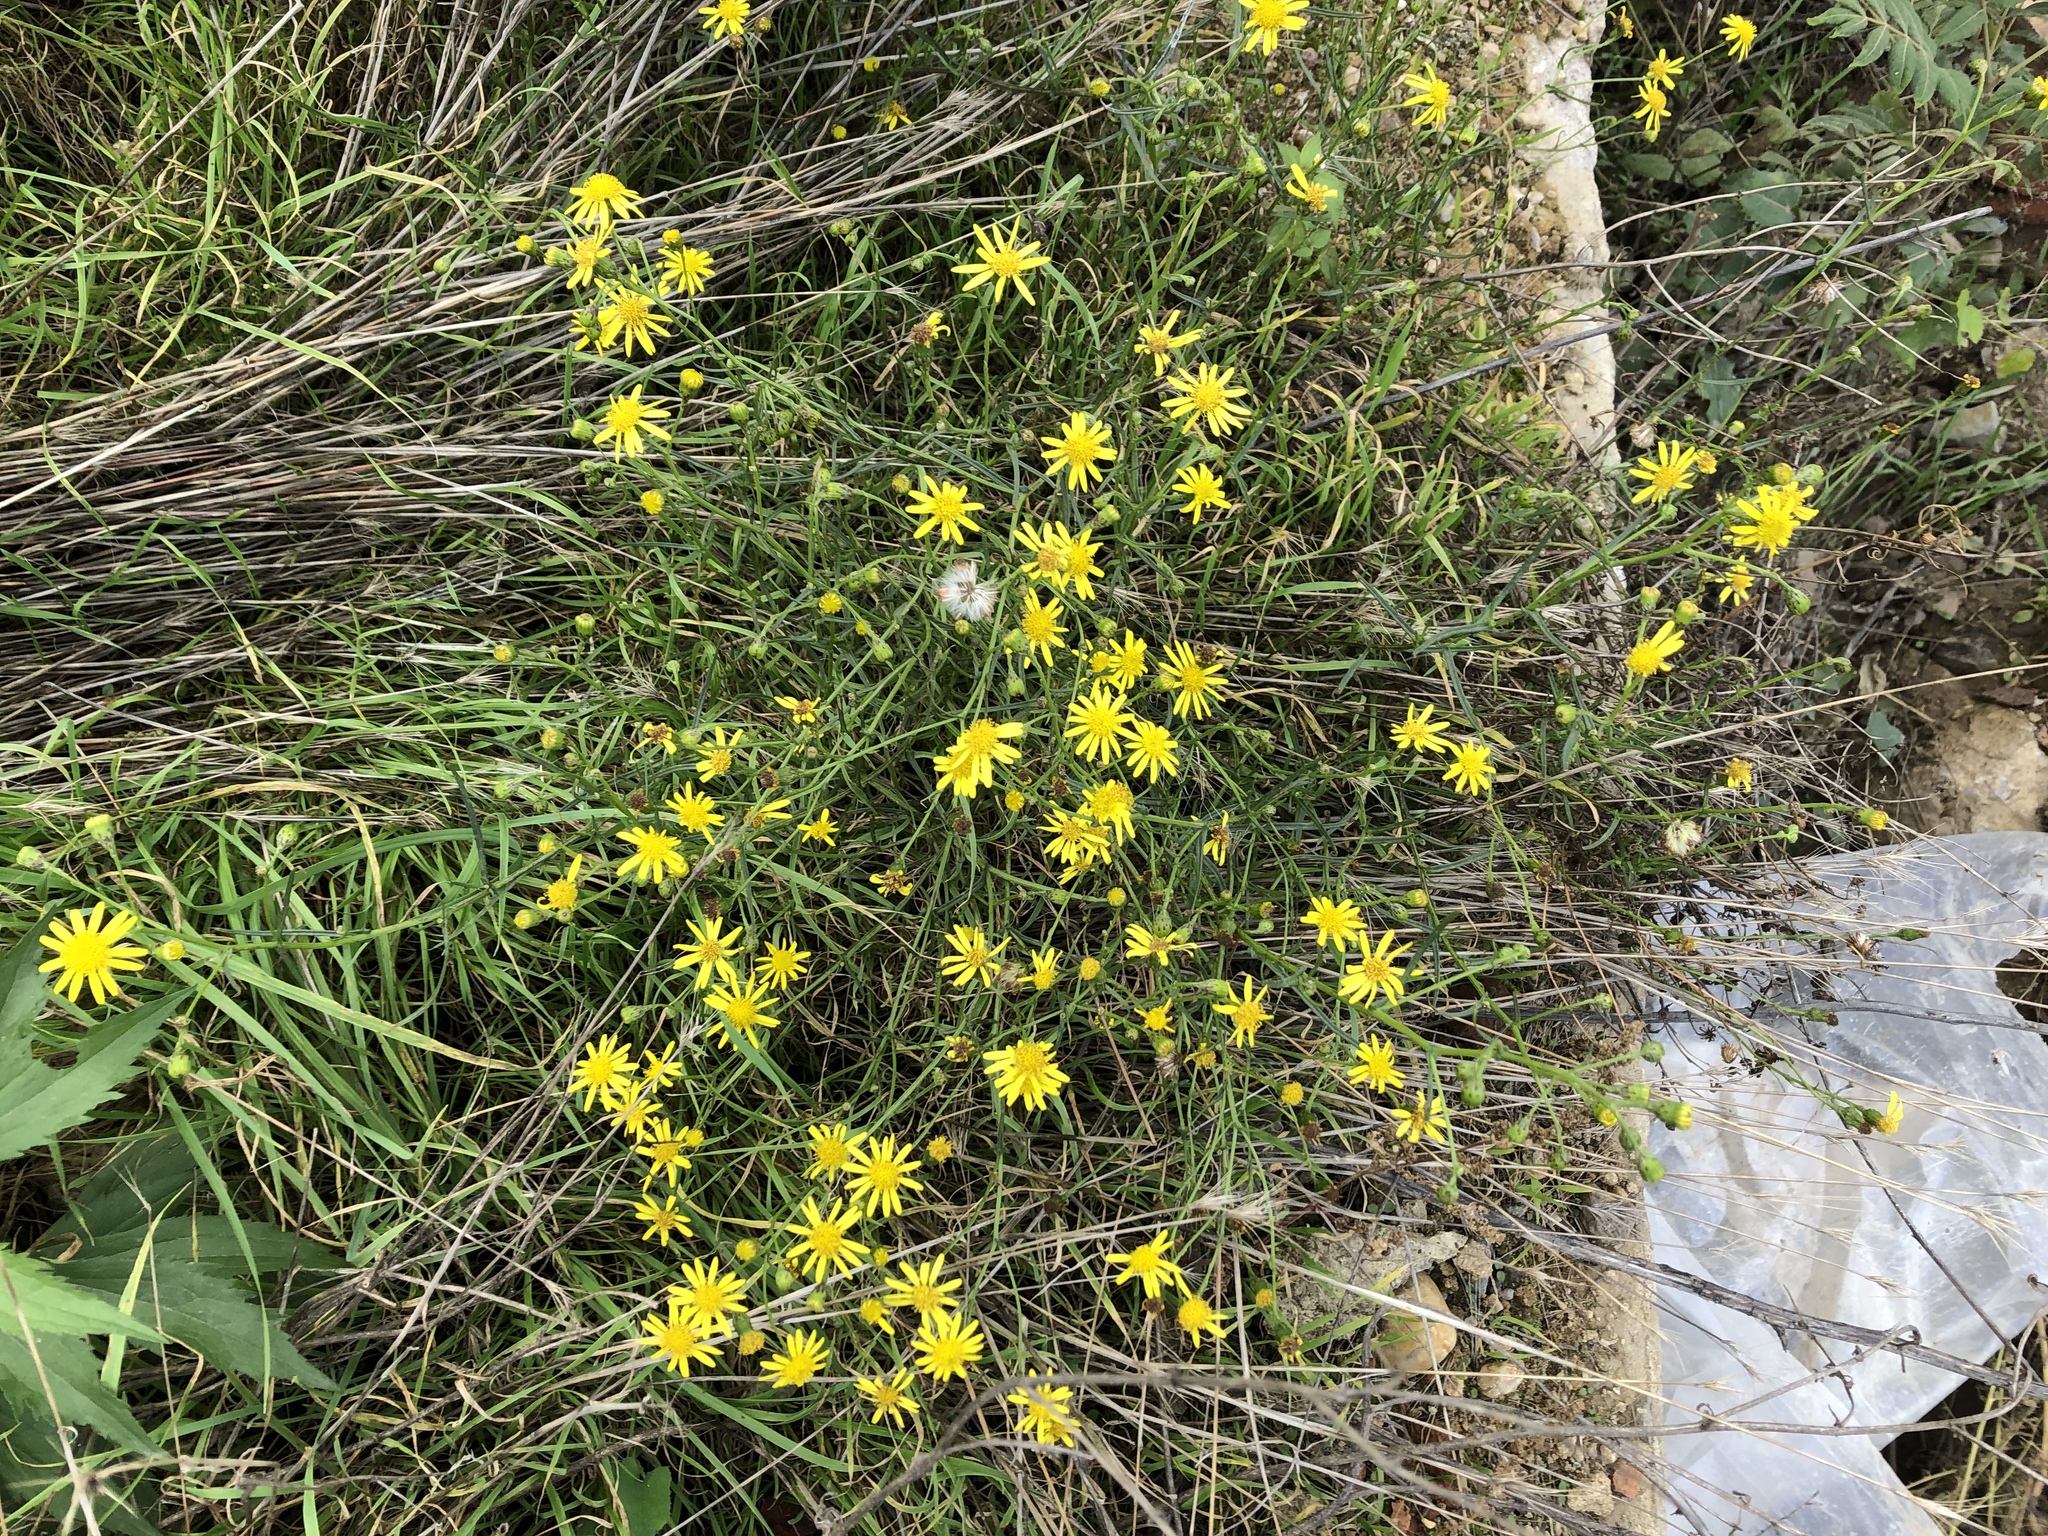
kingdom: Plantae
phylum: Tracheophyta
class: Magnoliopsida
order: Asterales
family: Asteraceae
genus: Senecio
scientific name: Senecio inaequidens
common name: Narrow-leaved ragwort
